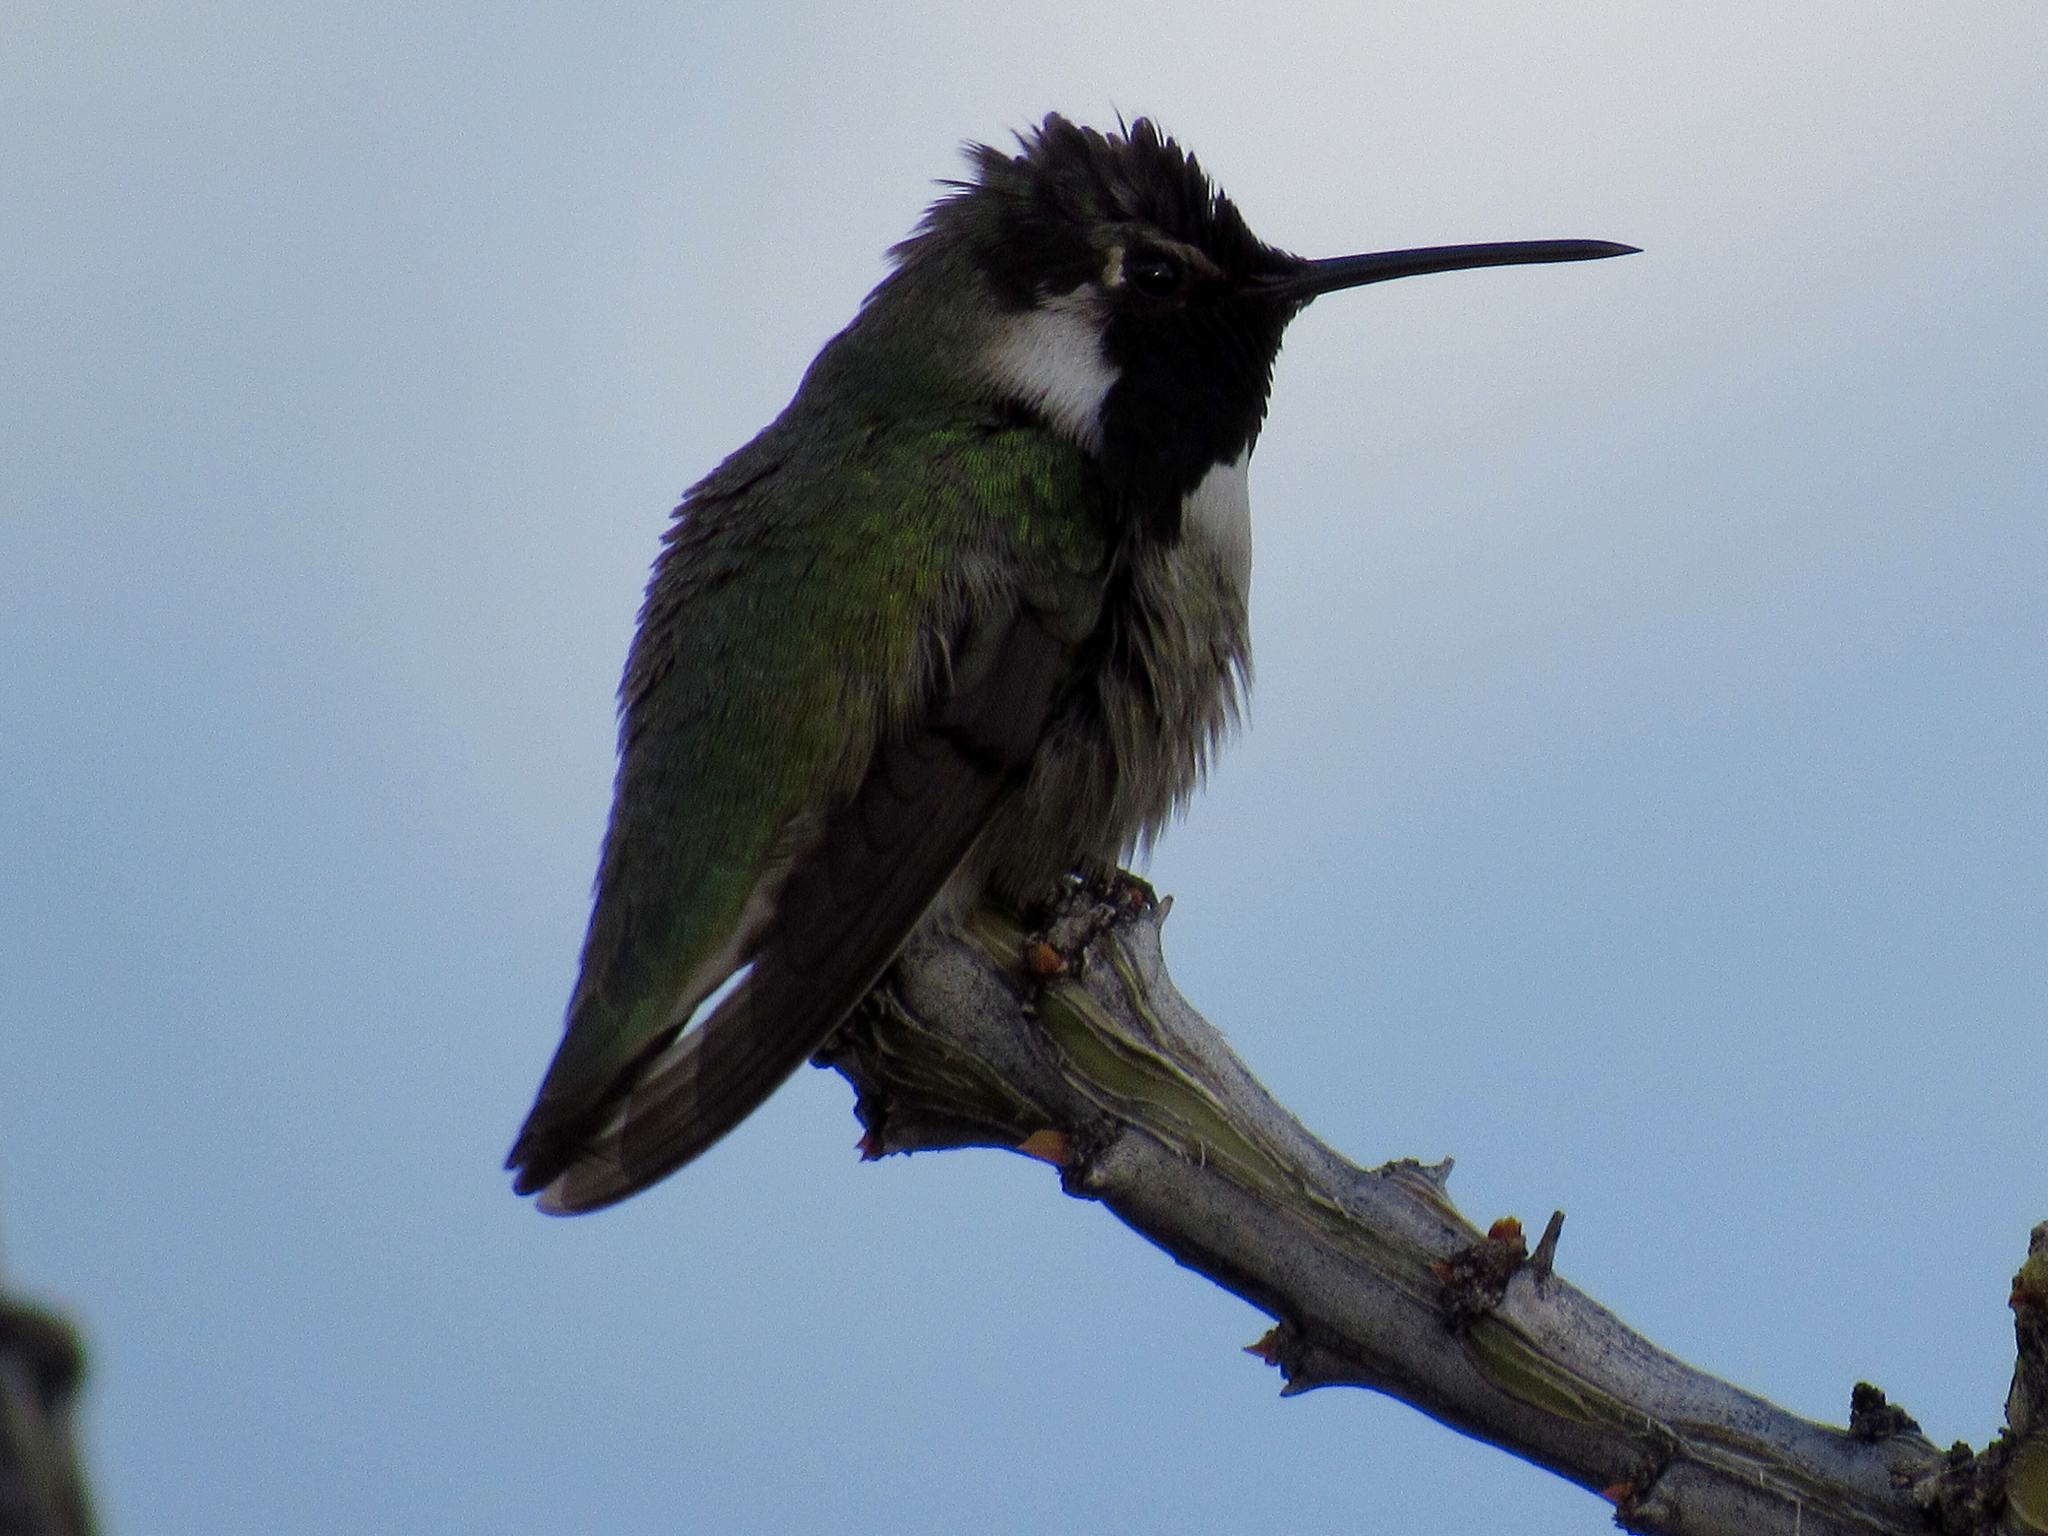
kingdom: Animalia
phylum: Chordata
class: Aves
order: Apodiformes
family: Trochilidae
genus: Calypte
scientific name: Calypte costae
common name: Costa's hummingbird
